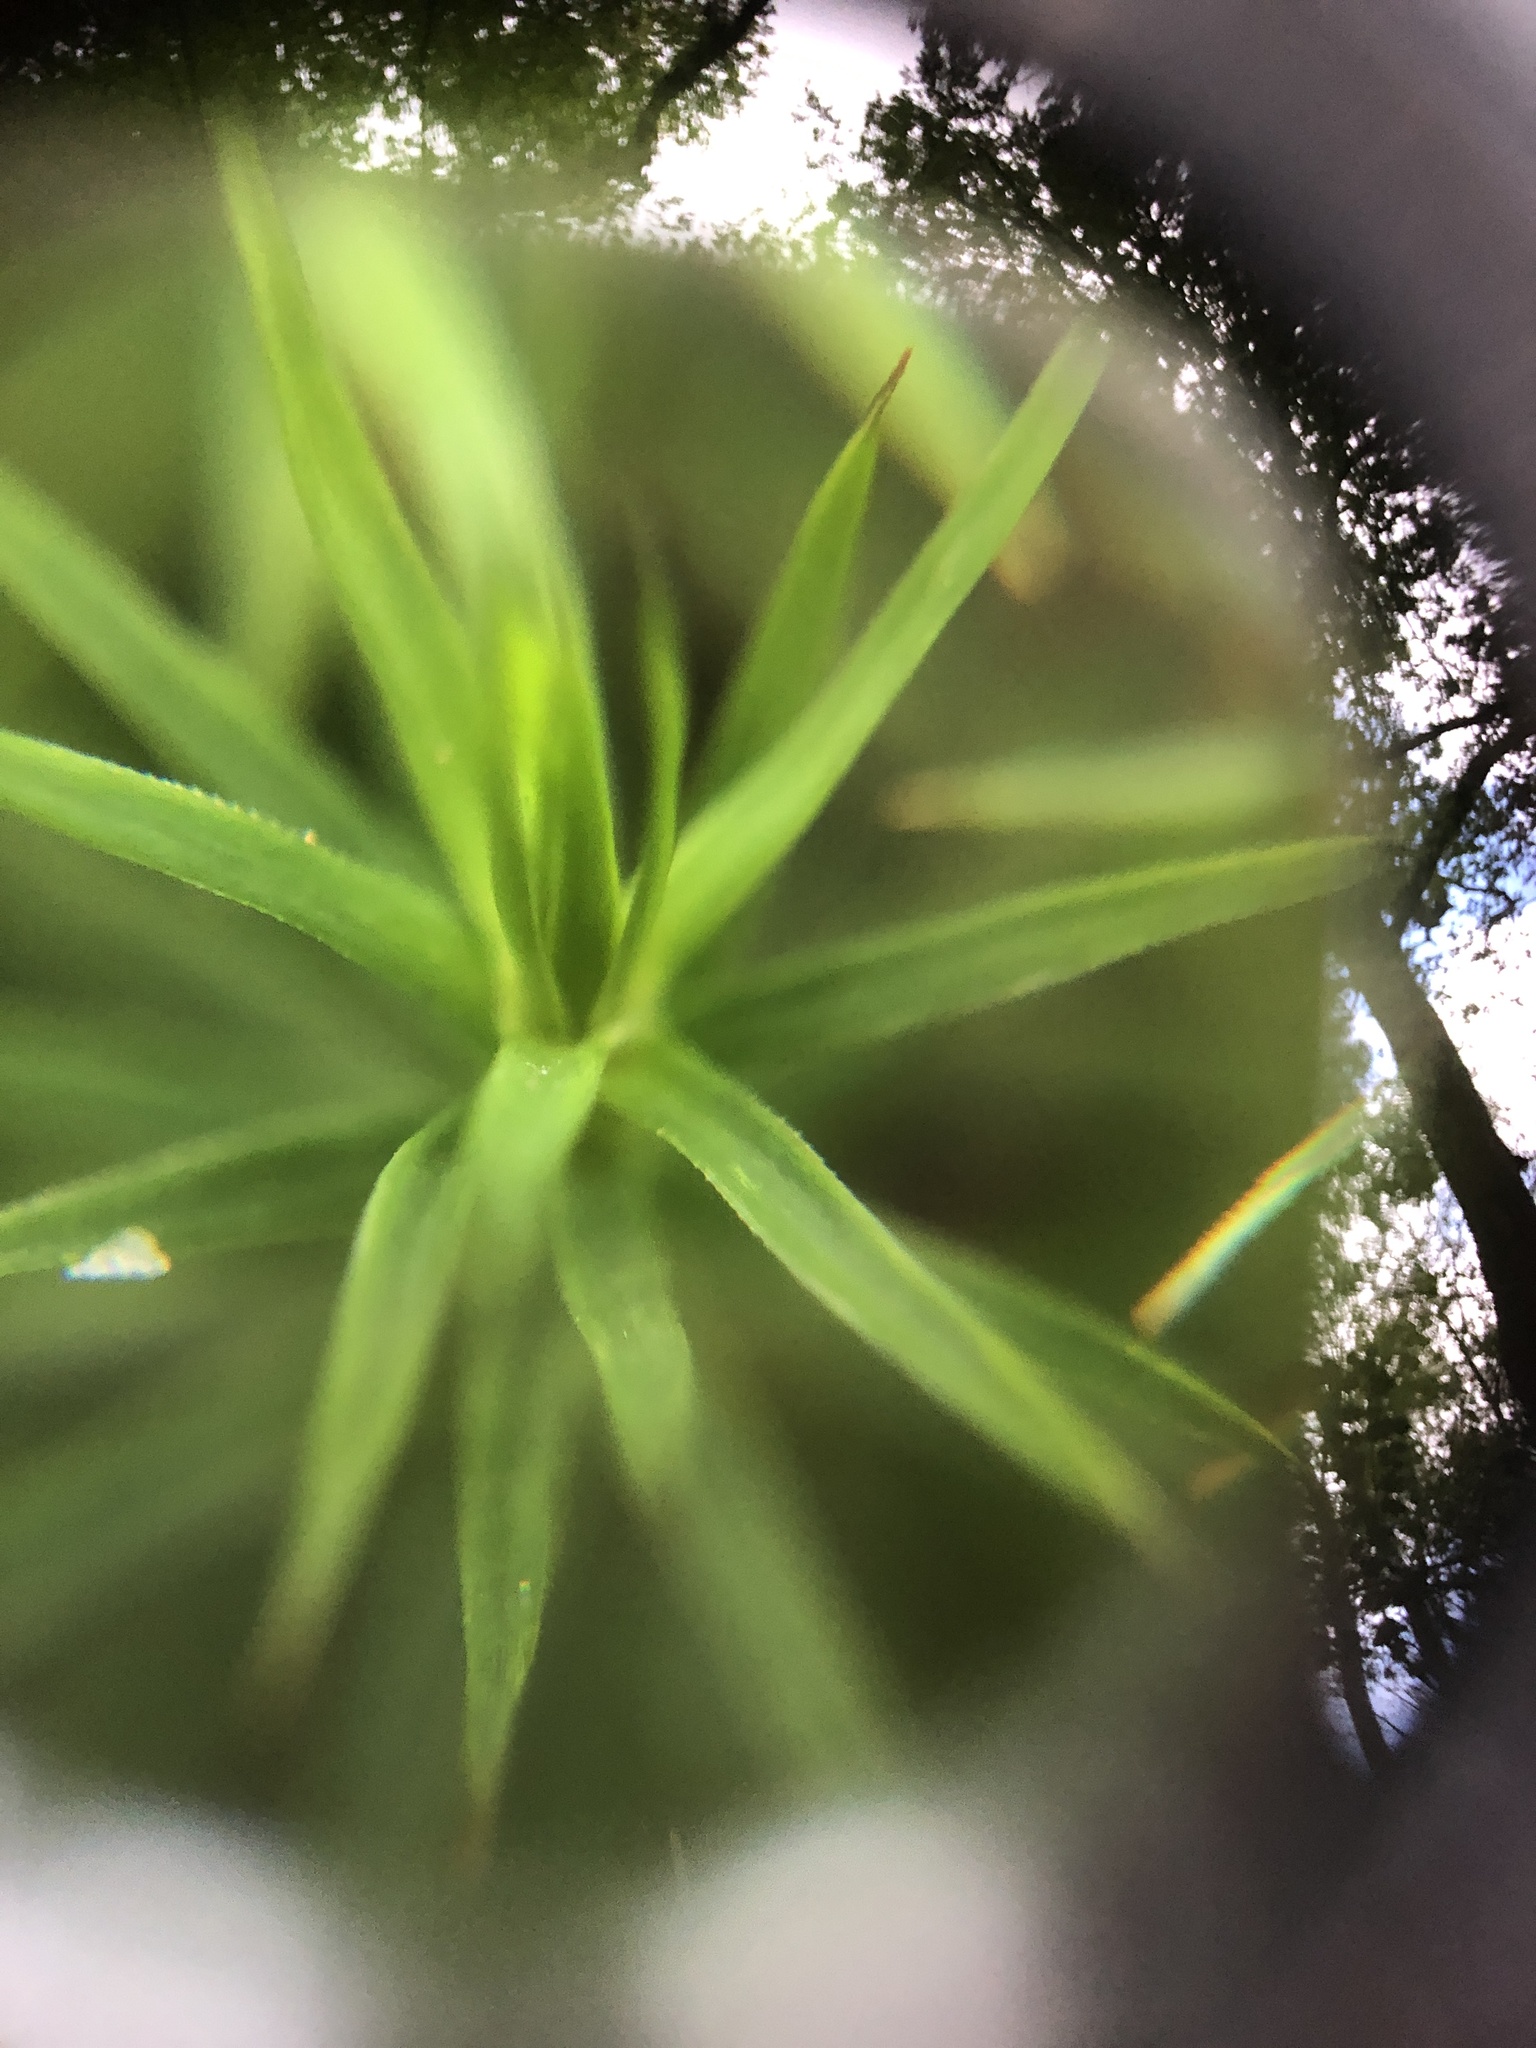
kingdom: Plantae
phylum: Bryophyta
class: Polytrichopsida
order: Polytrichales
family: Polytrichaceae
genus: Polytrichum
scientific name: Polytrichum formosum
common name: Bank haircap moss
